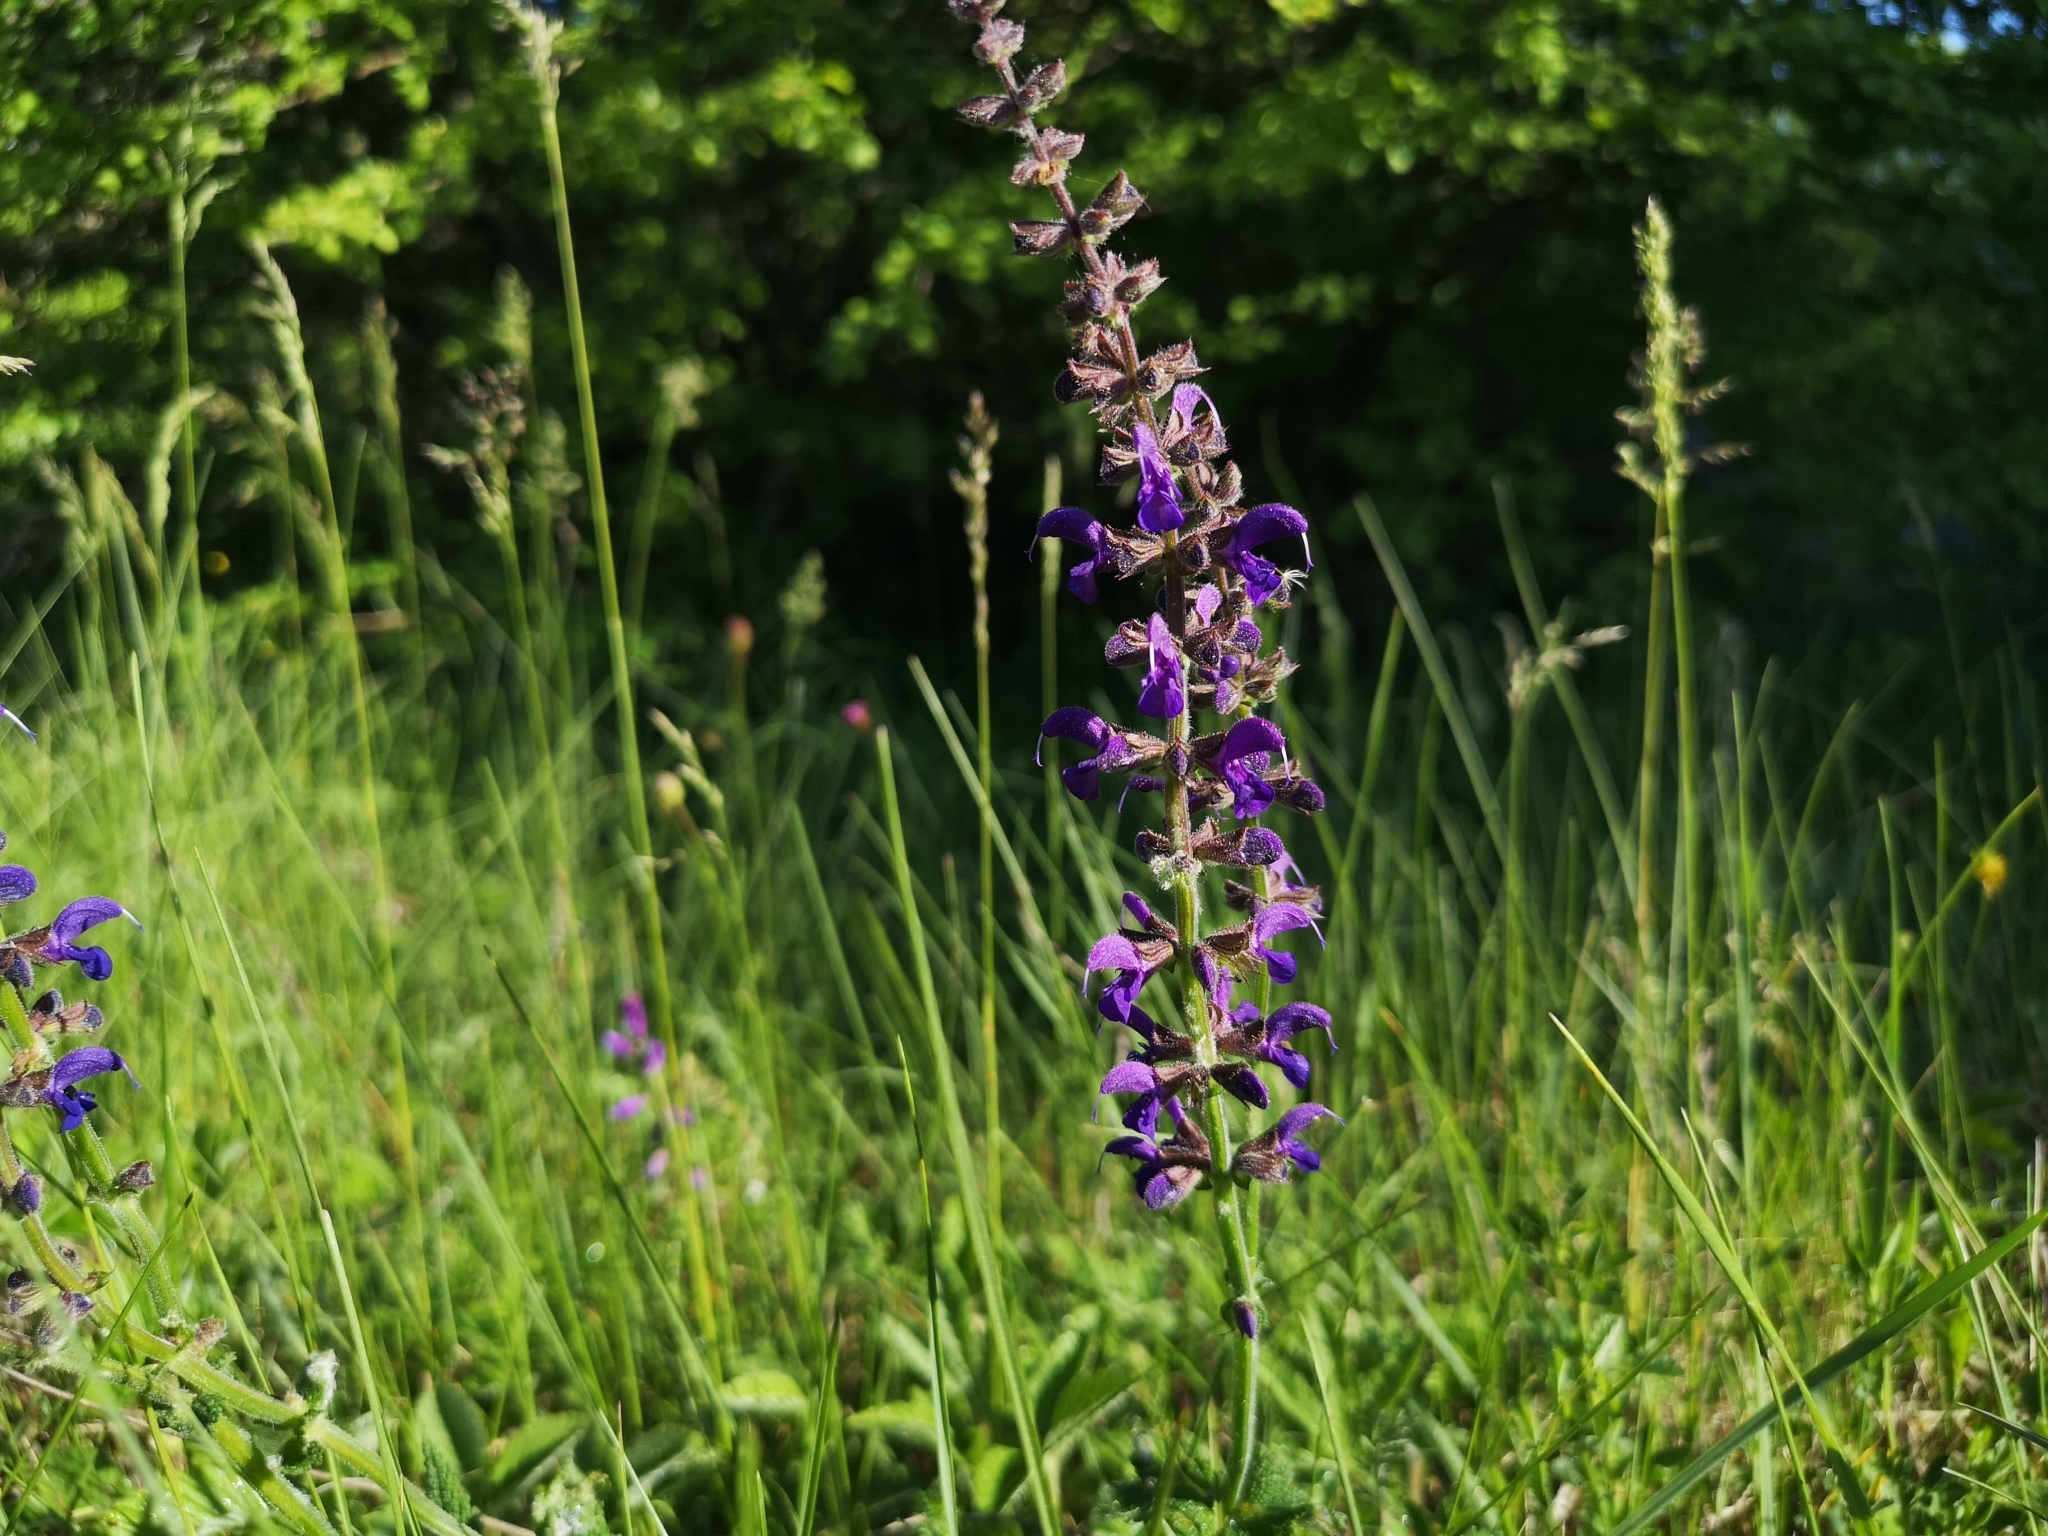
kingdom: Plantae
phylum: Tracheophyta
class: Magnoliopsida
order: Lamiales
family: Lamiaceae
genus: Salvia
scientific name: Salvia pratensis
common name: Meadow sage
